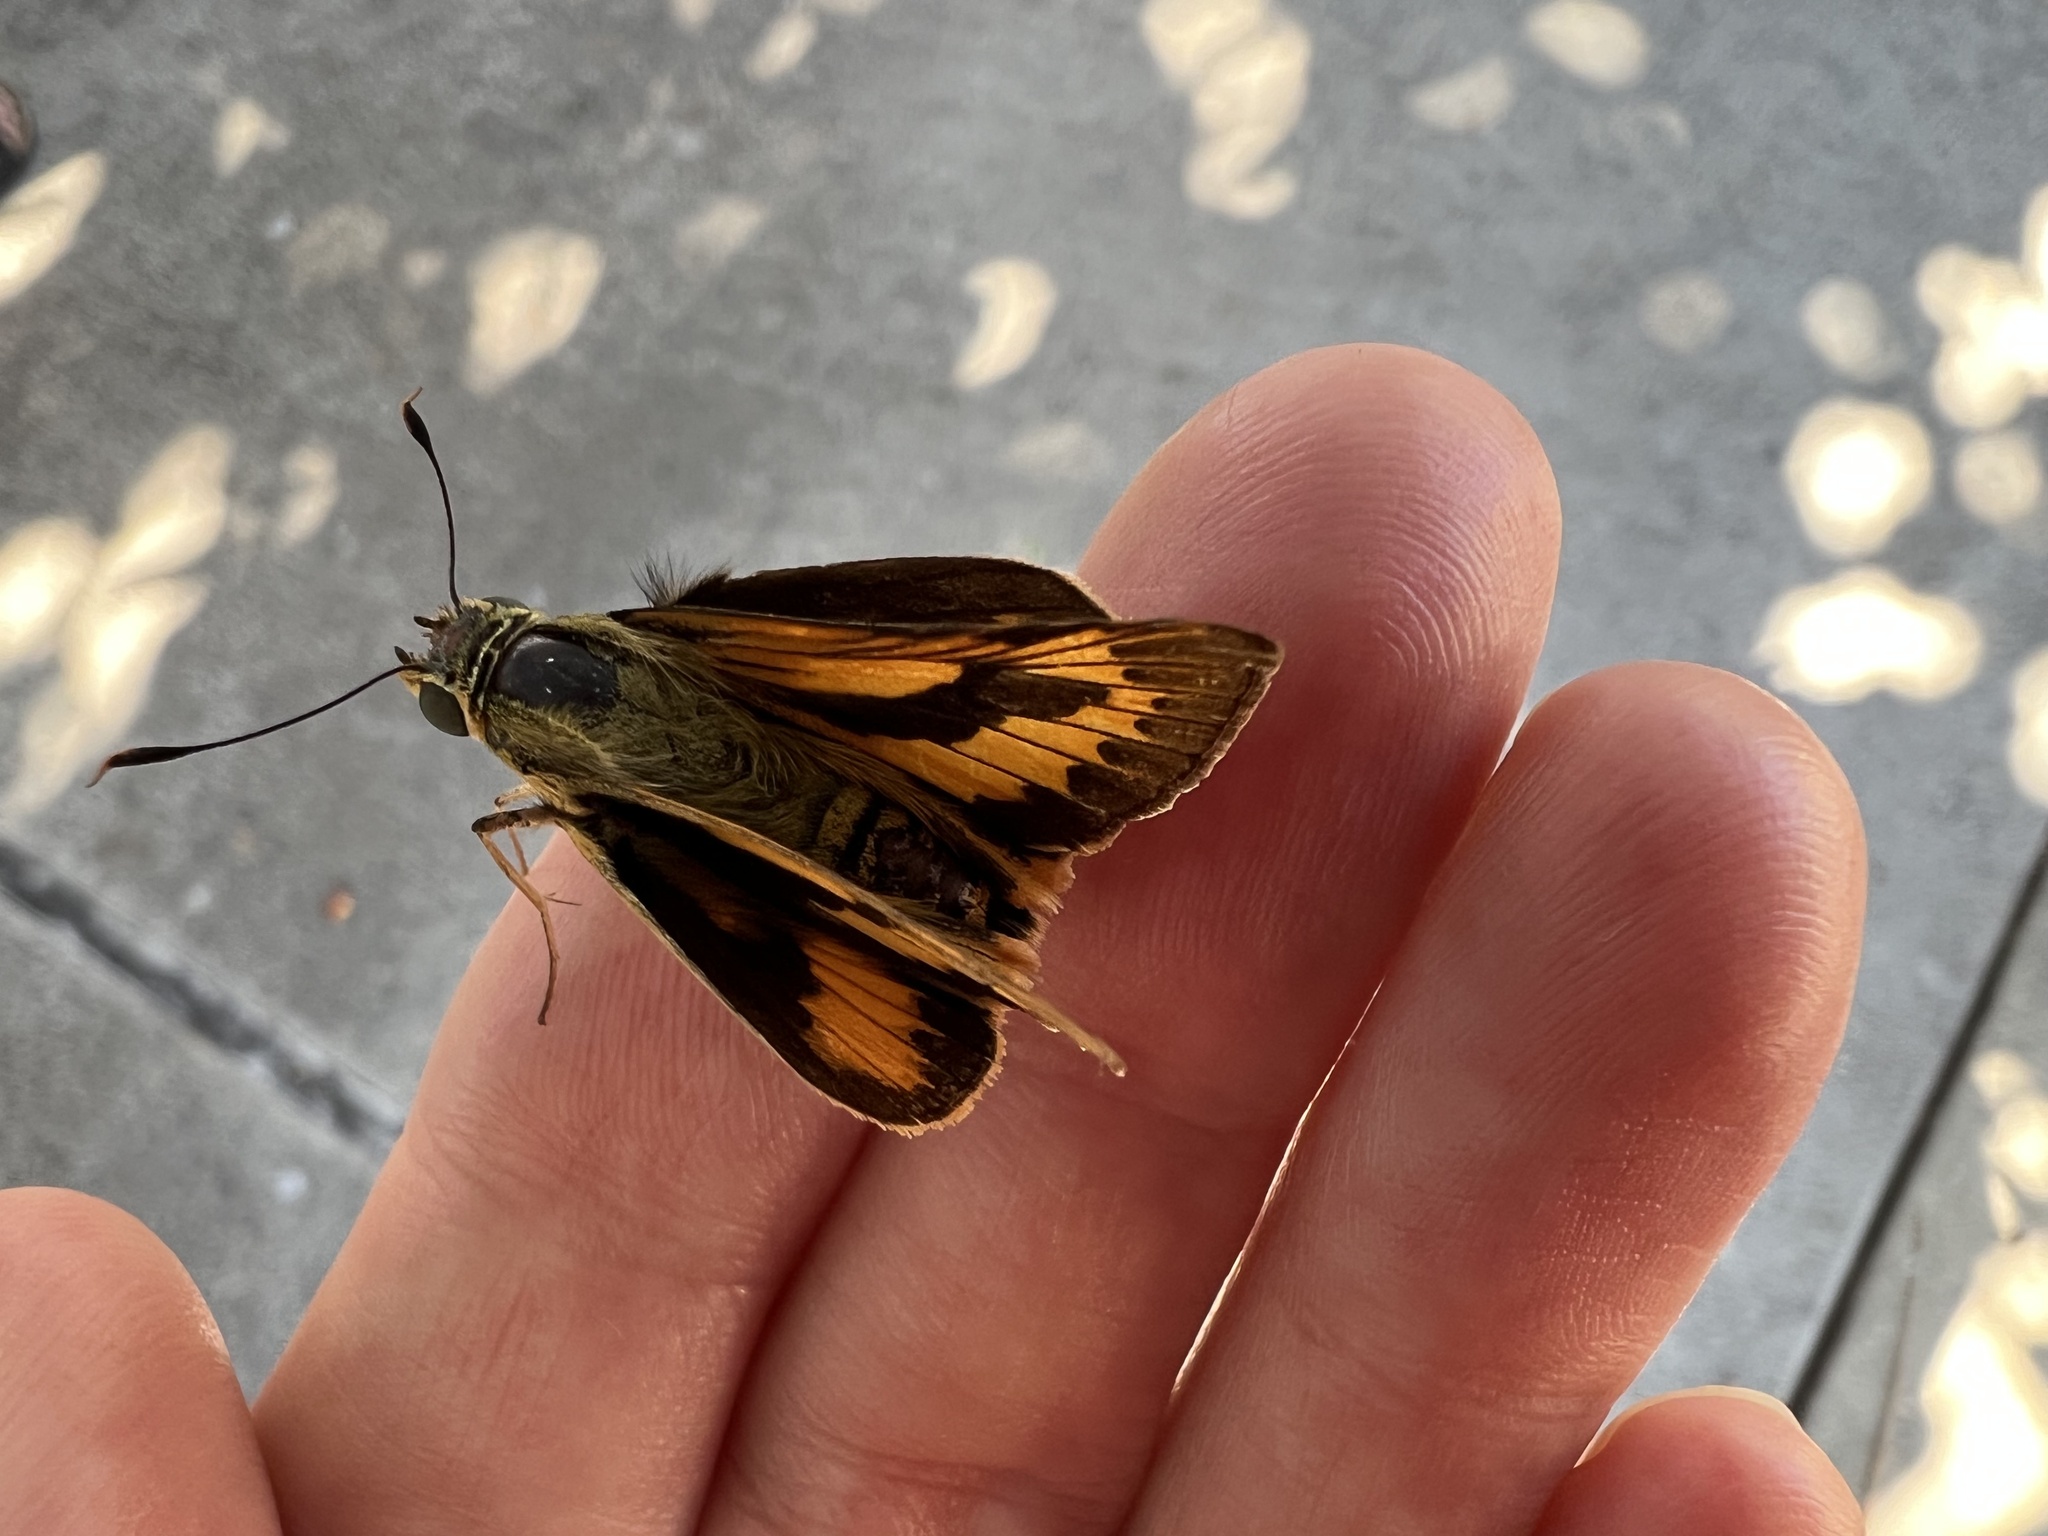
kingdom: Animalia
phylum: Arthropoda
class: Insecta
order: Lepidoptera
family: Hesperiidae
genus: Cephrenes
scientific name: Cephrenes trichopepla
